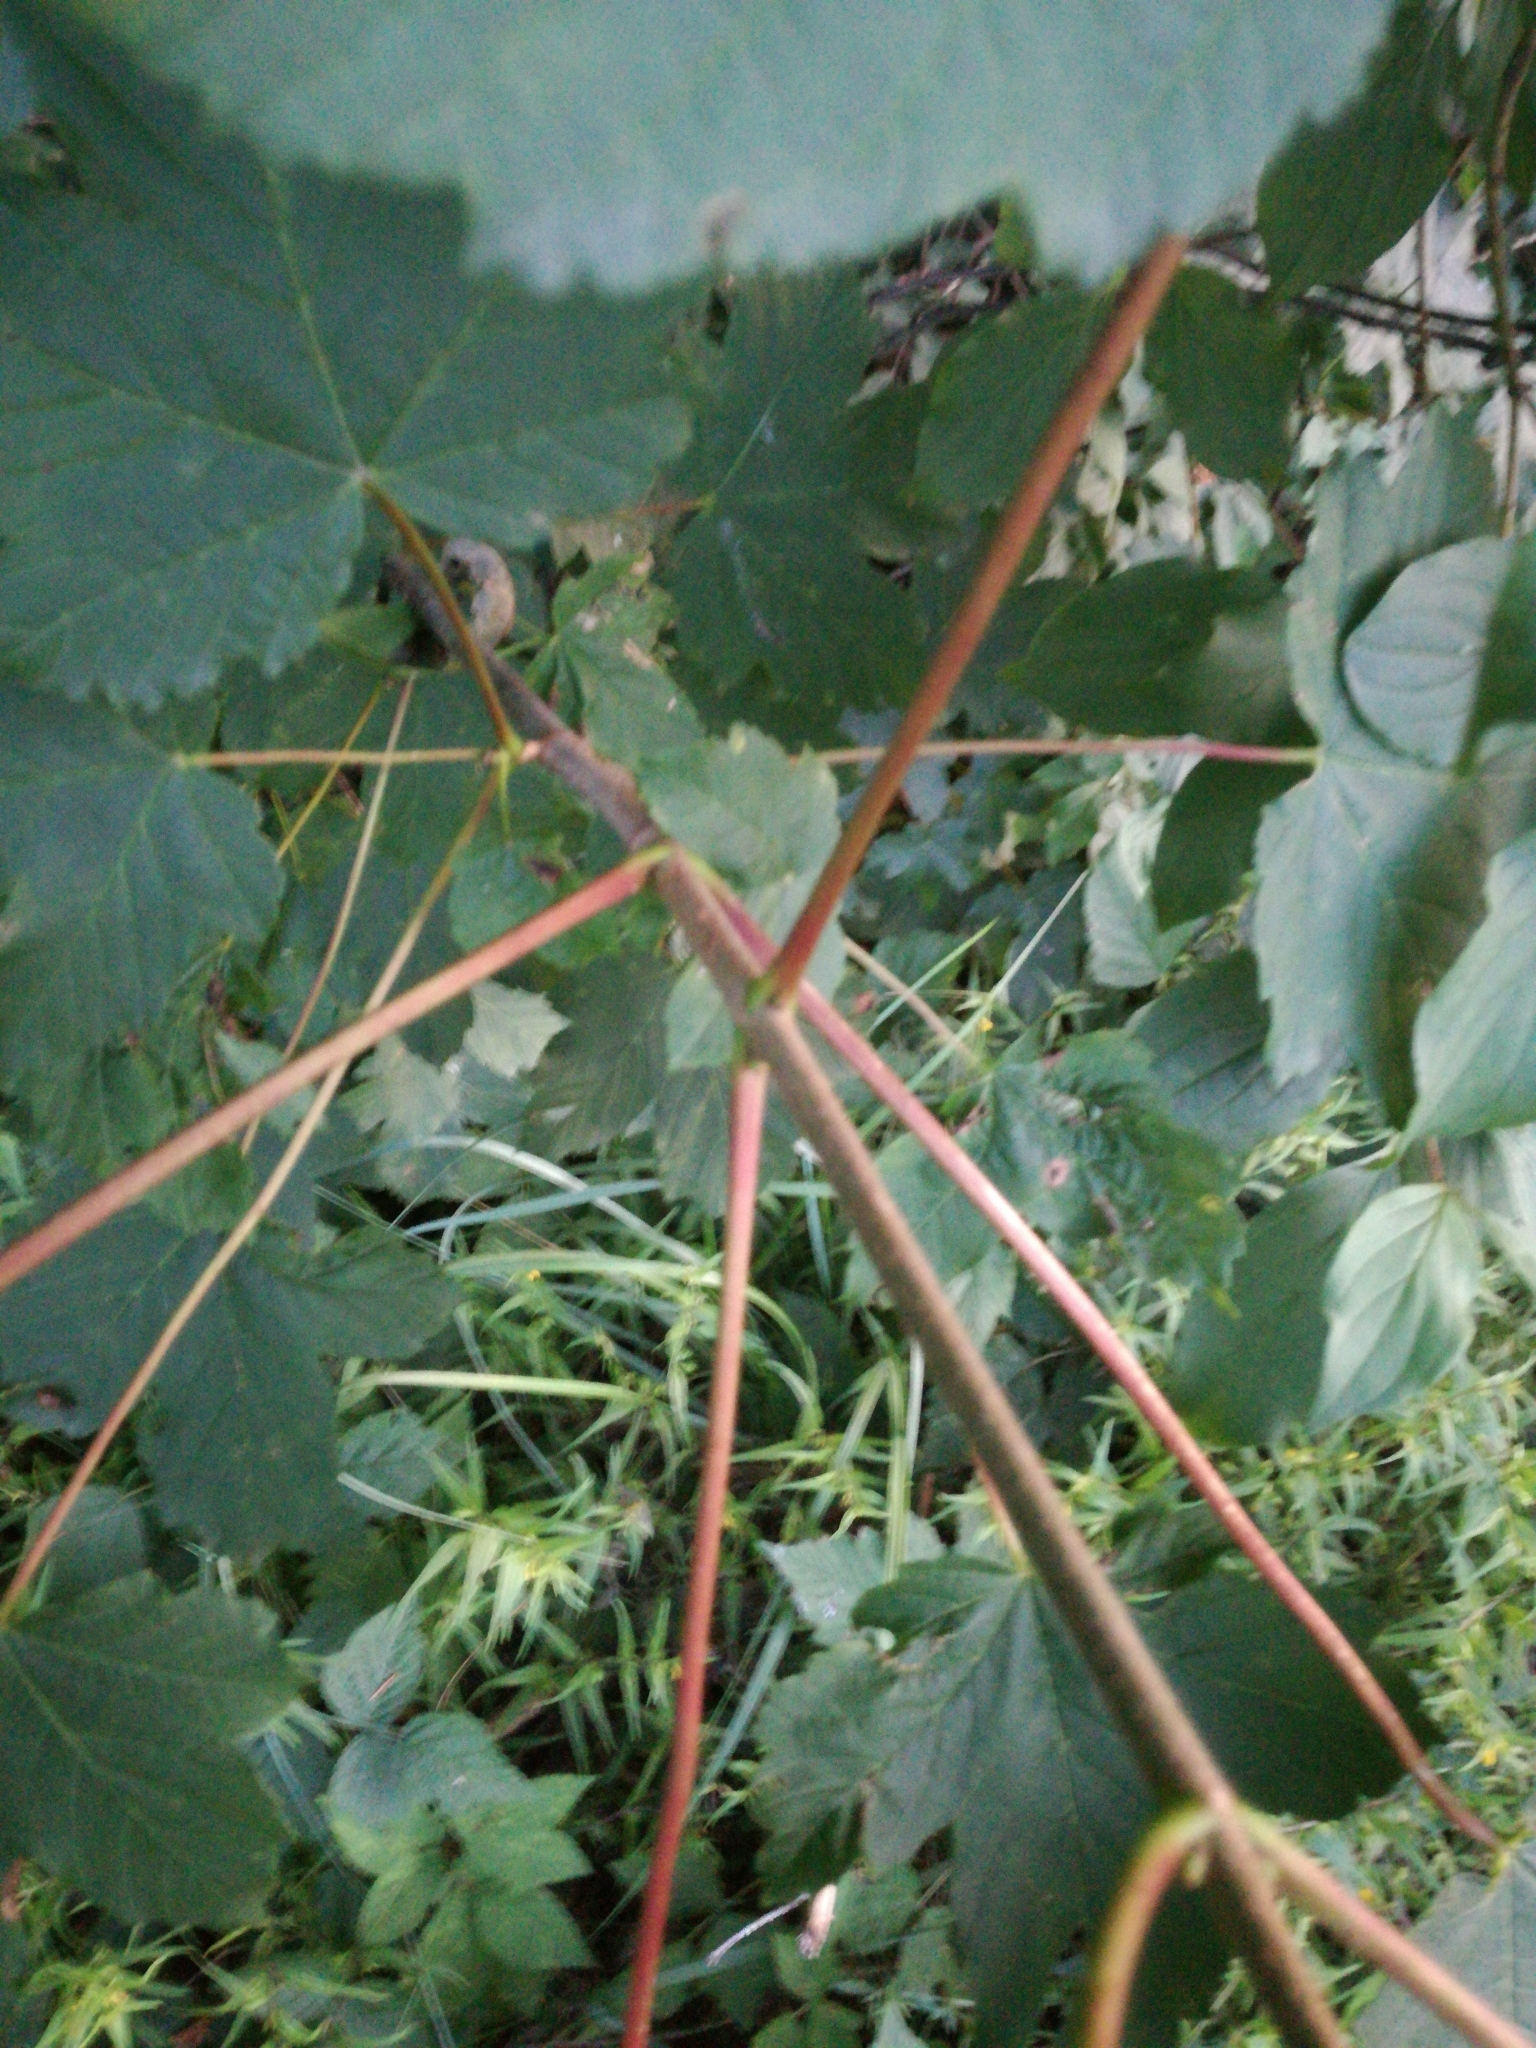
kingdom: Plantae
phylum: Tracheophyta
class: Magnoliopsida
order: Sapindales
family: Sapindaceae
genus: Acer
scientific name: Acer pseudoplatanus
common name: Sycamore
